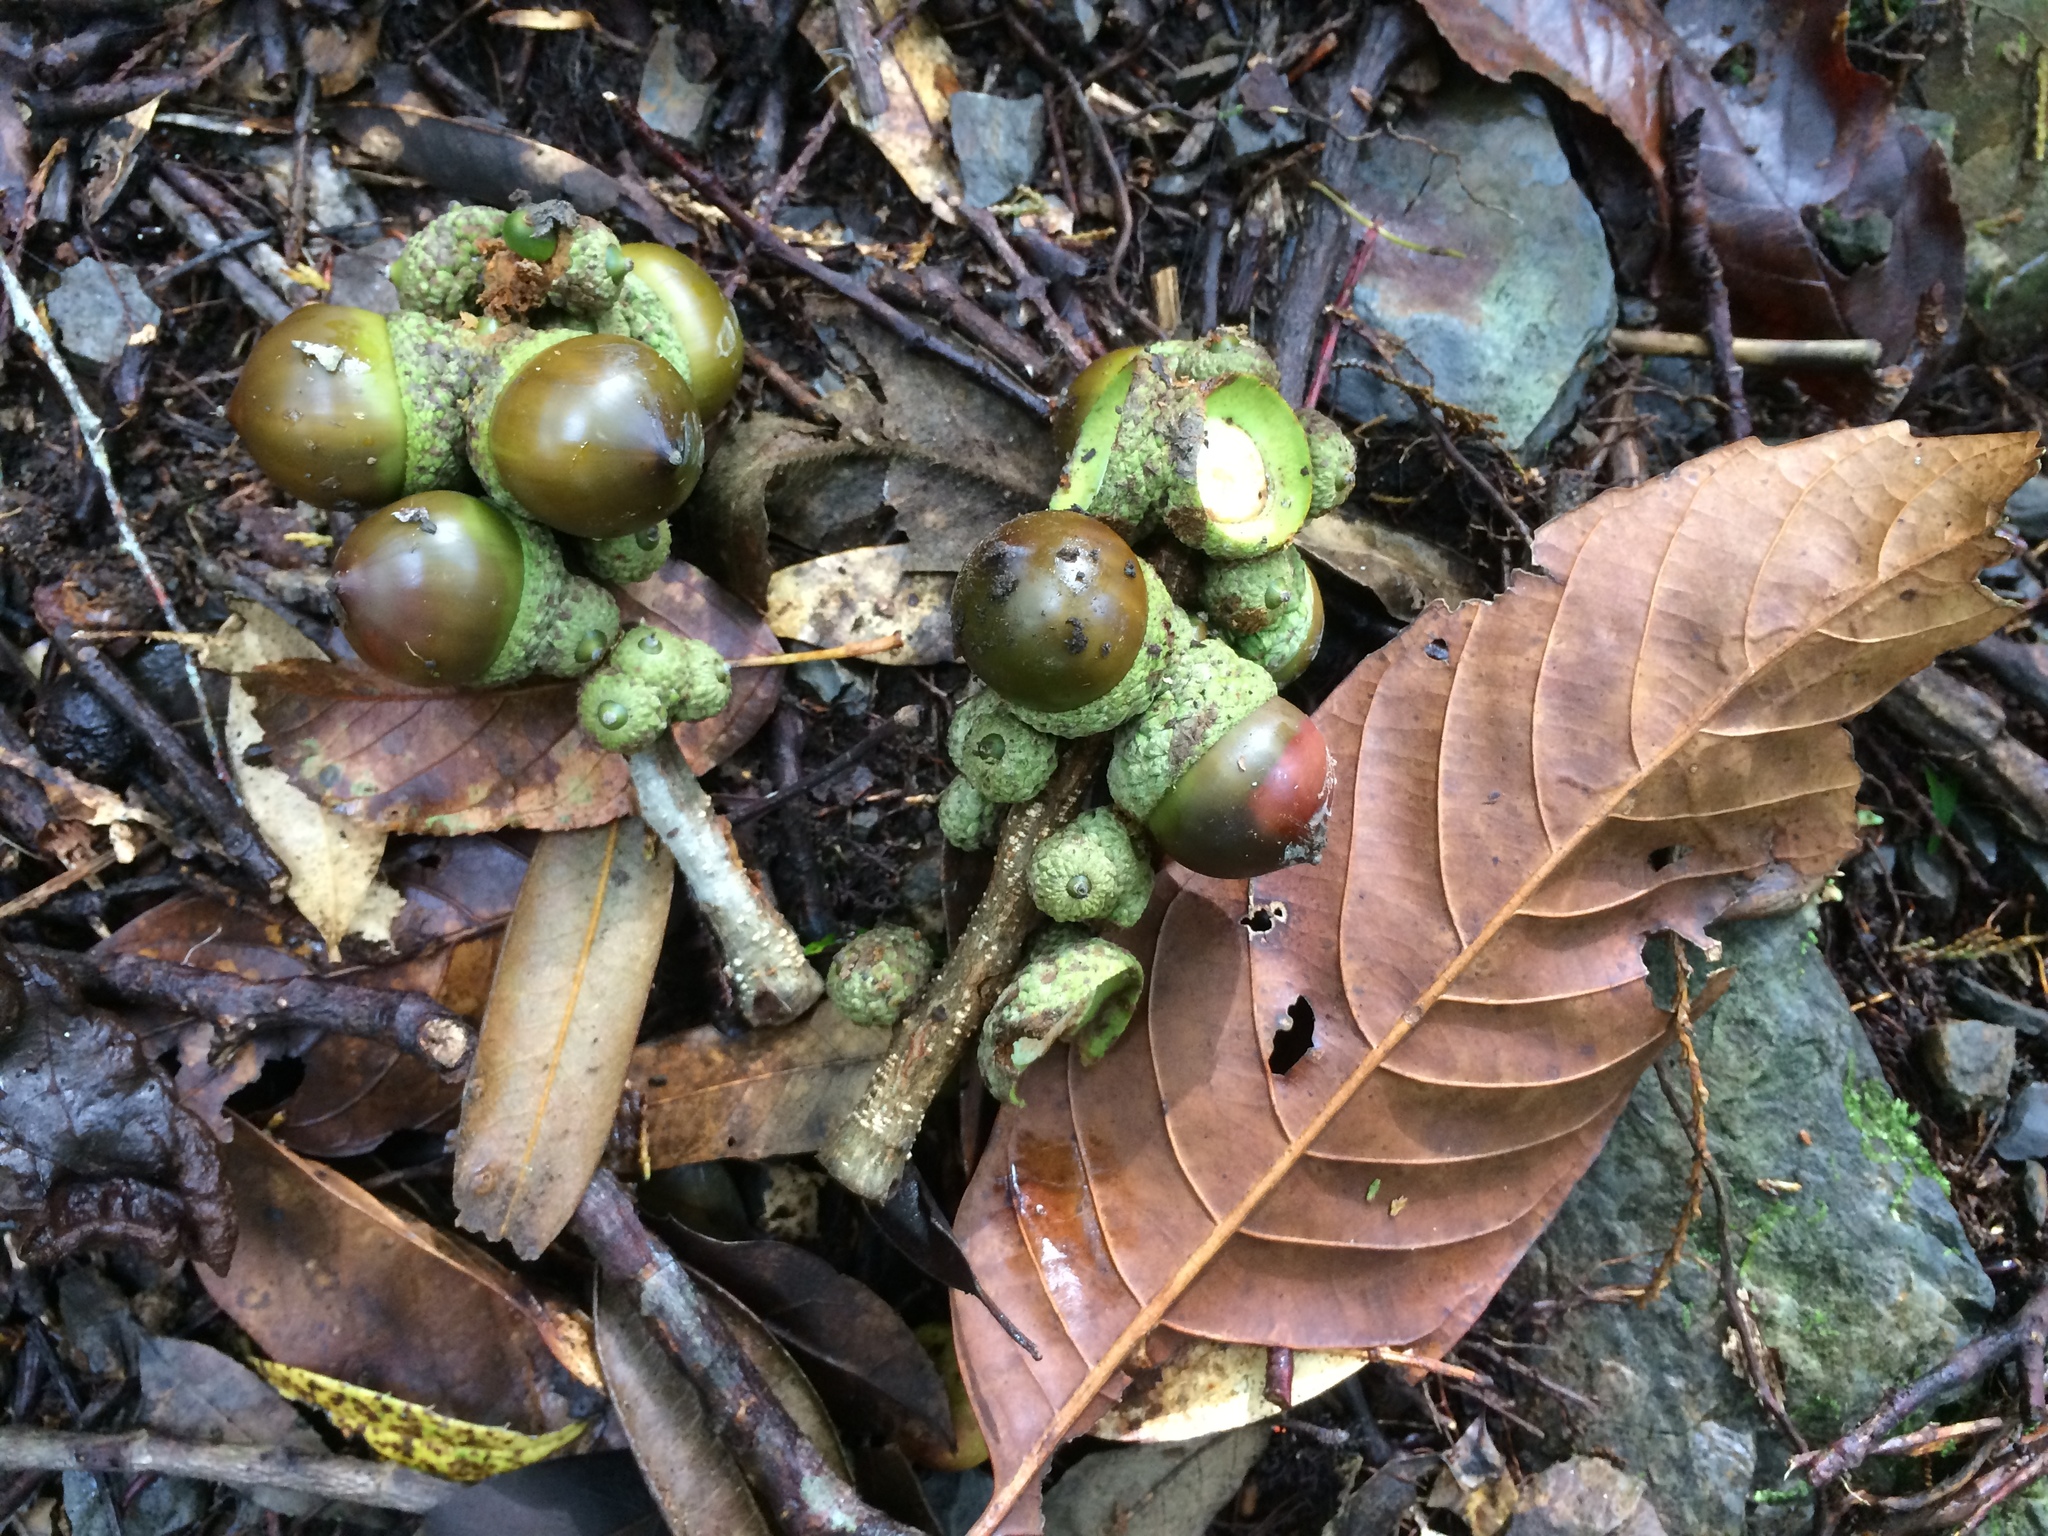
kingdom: Plantae
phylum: Tracheophyta
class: Magnoliopsida
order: Fagales
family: Fagaceae
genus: Lithocarpus
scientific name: Lithocarpus kawakamii
